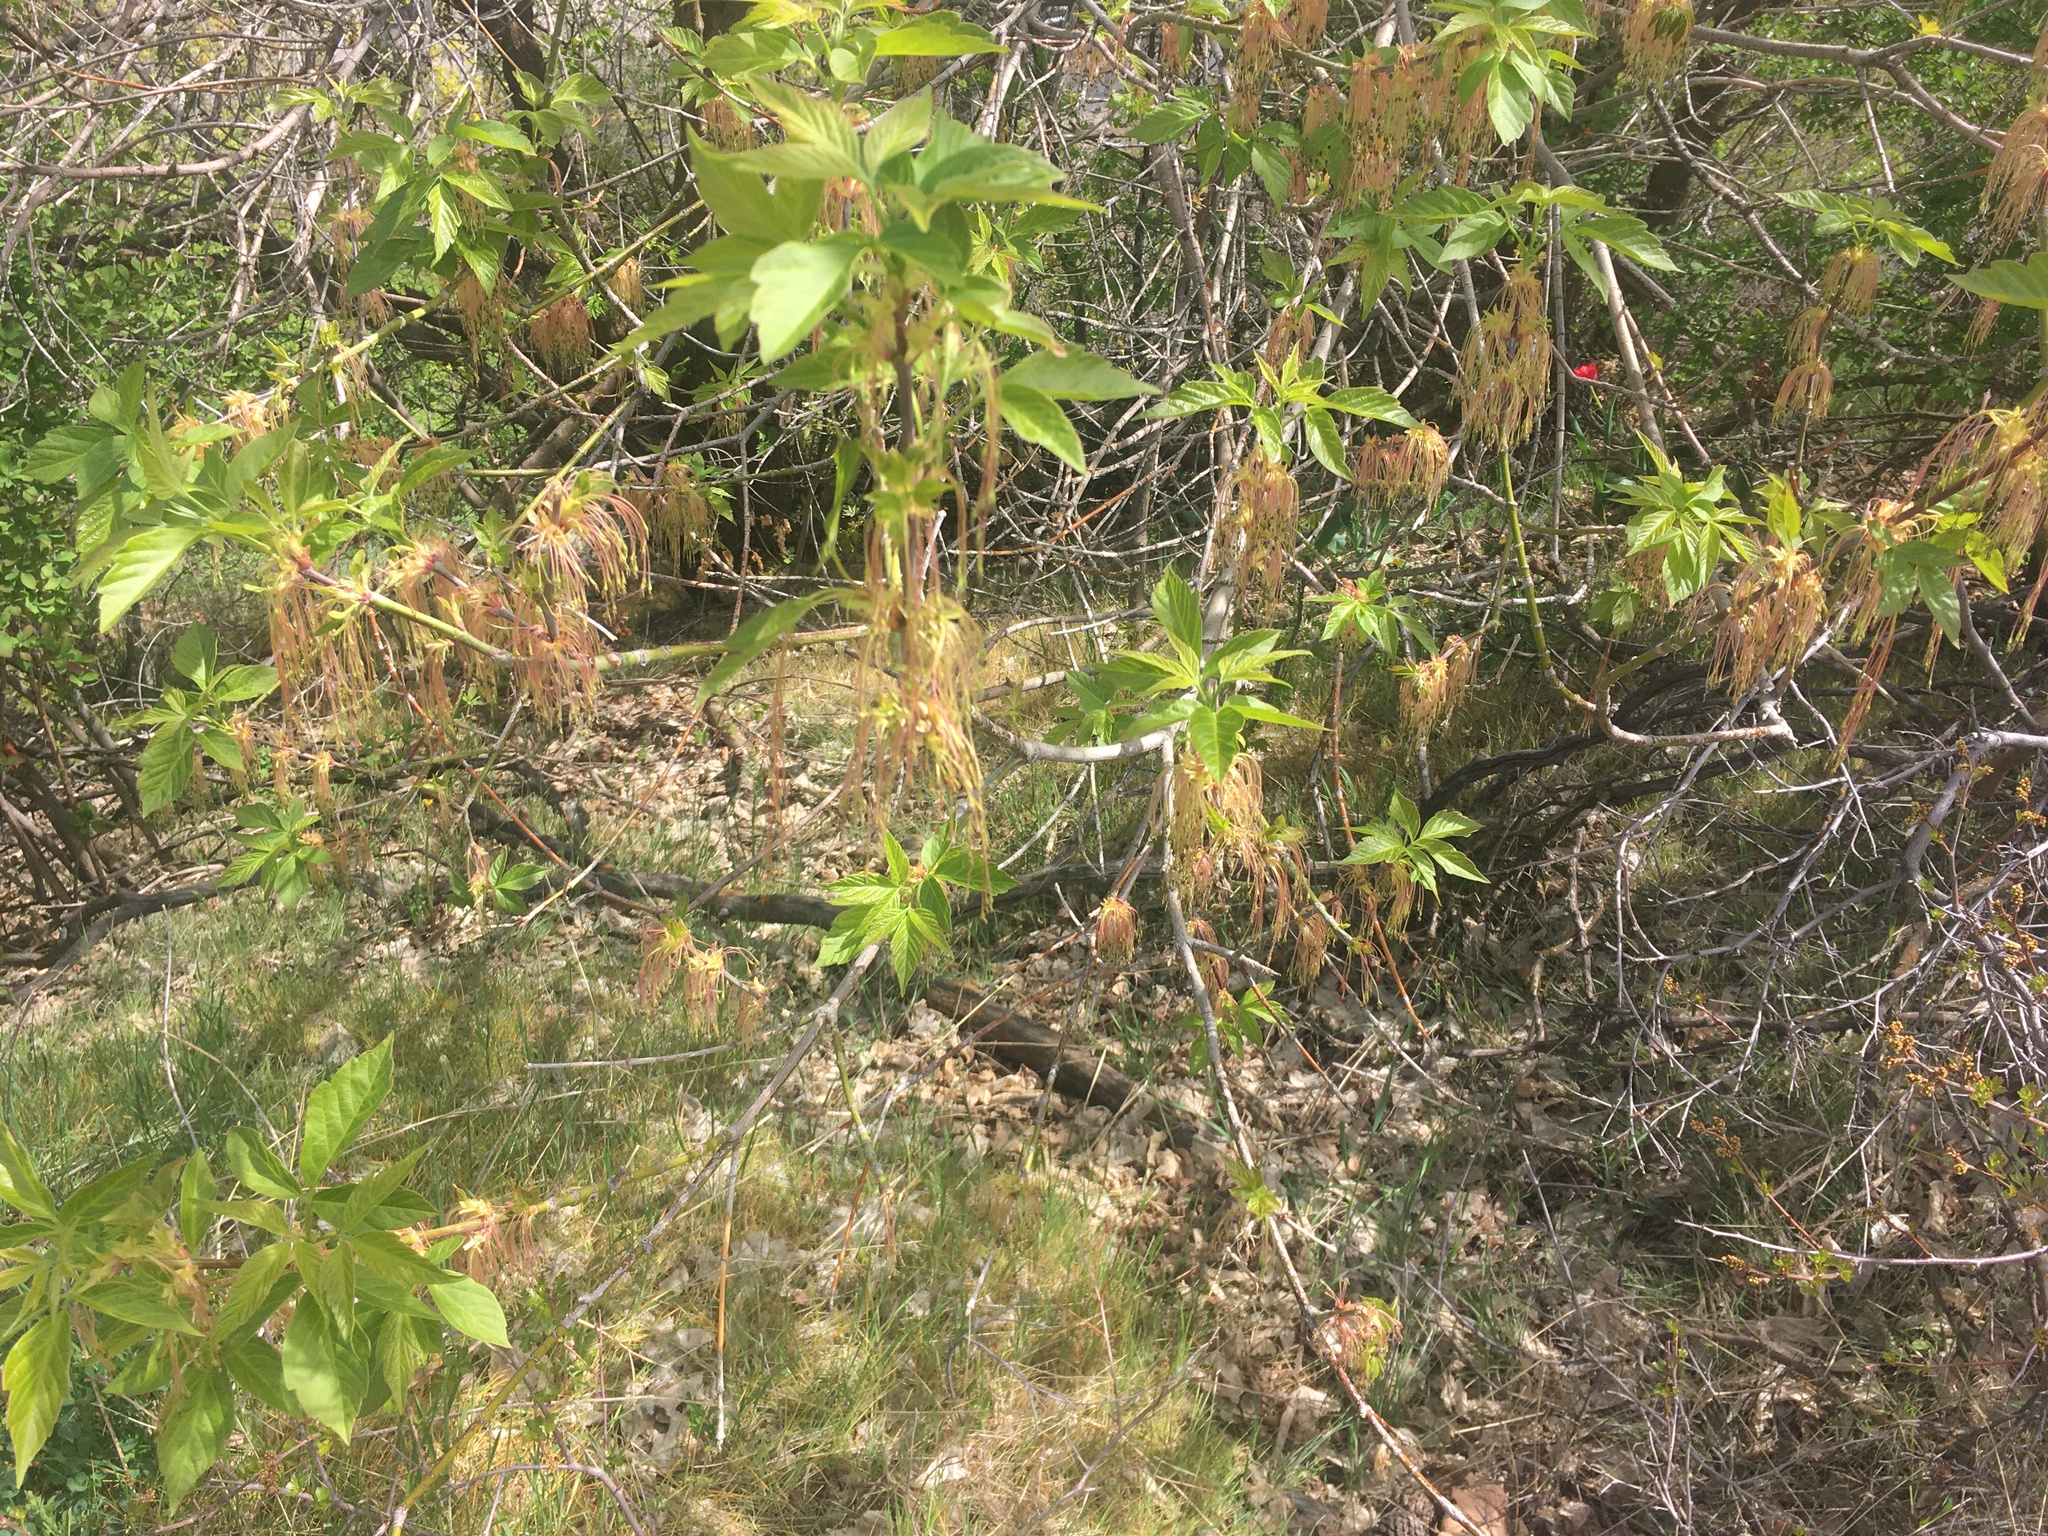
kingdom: Plantae
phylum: Tracheophyta
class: Magnoliopsida
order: Sapindales
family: Sapindaceae
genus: Acer
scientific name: Acer negundo
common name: Ashleaf maple
